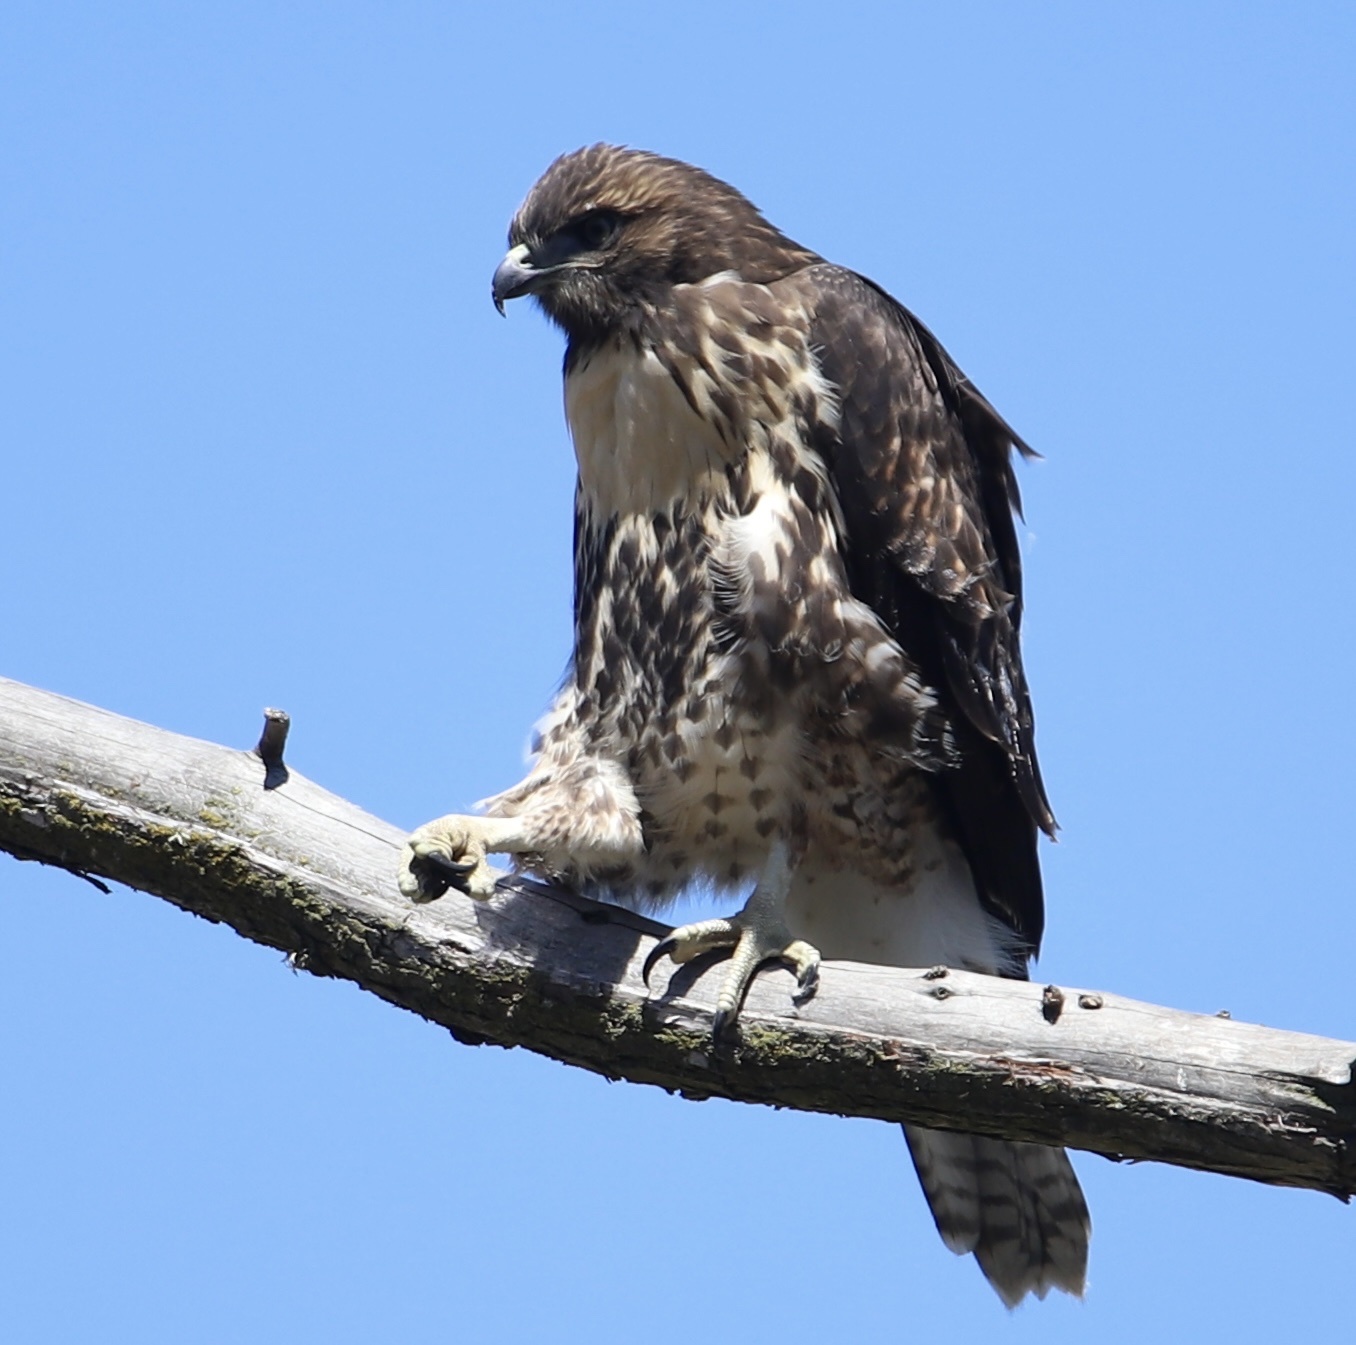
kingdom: Animalia
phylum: Chordata
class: Aves
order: Accipitriformes
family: Accipitridae
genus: Buteo
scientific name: Buteo jamaicensis
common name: Red-tailed hawk
